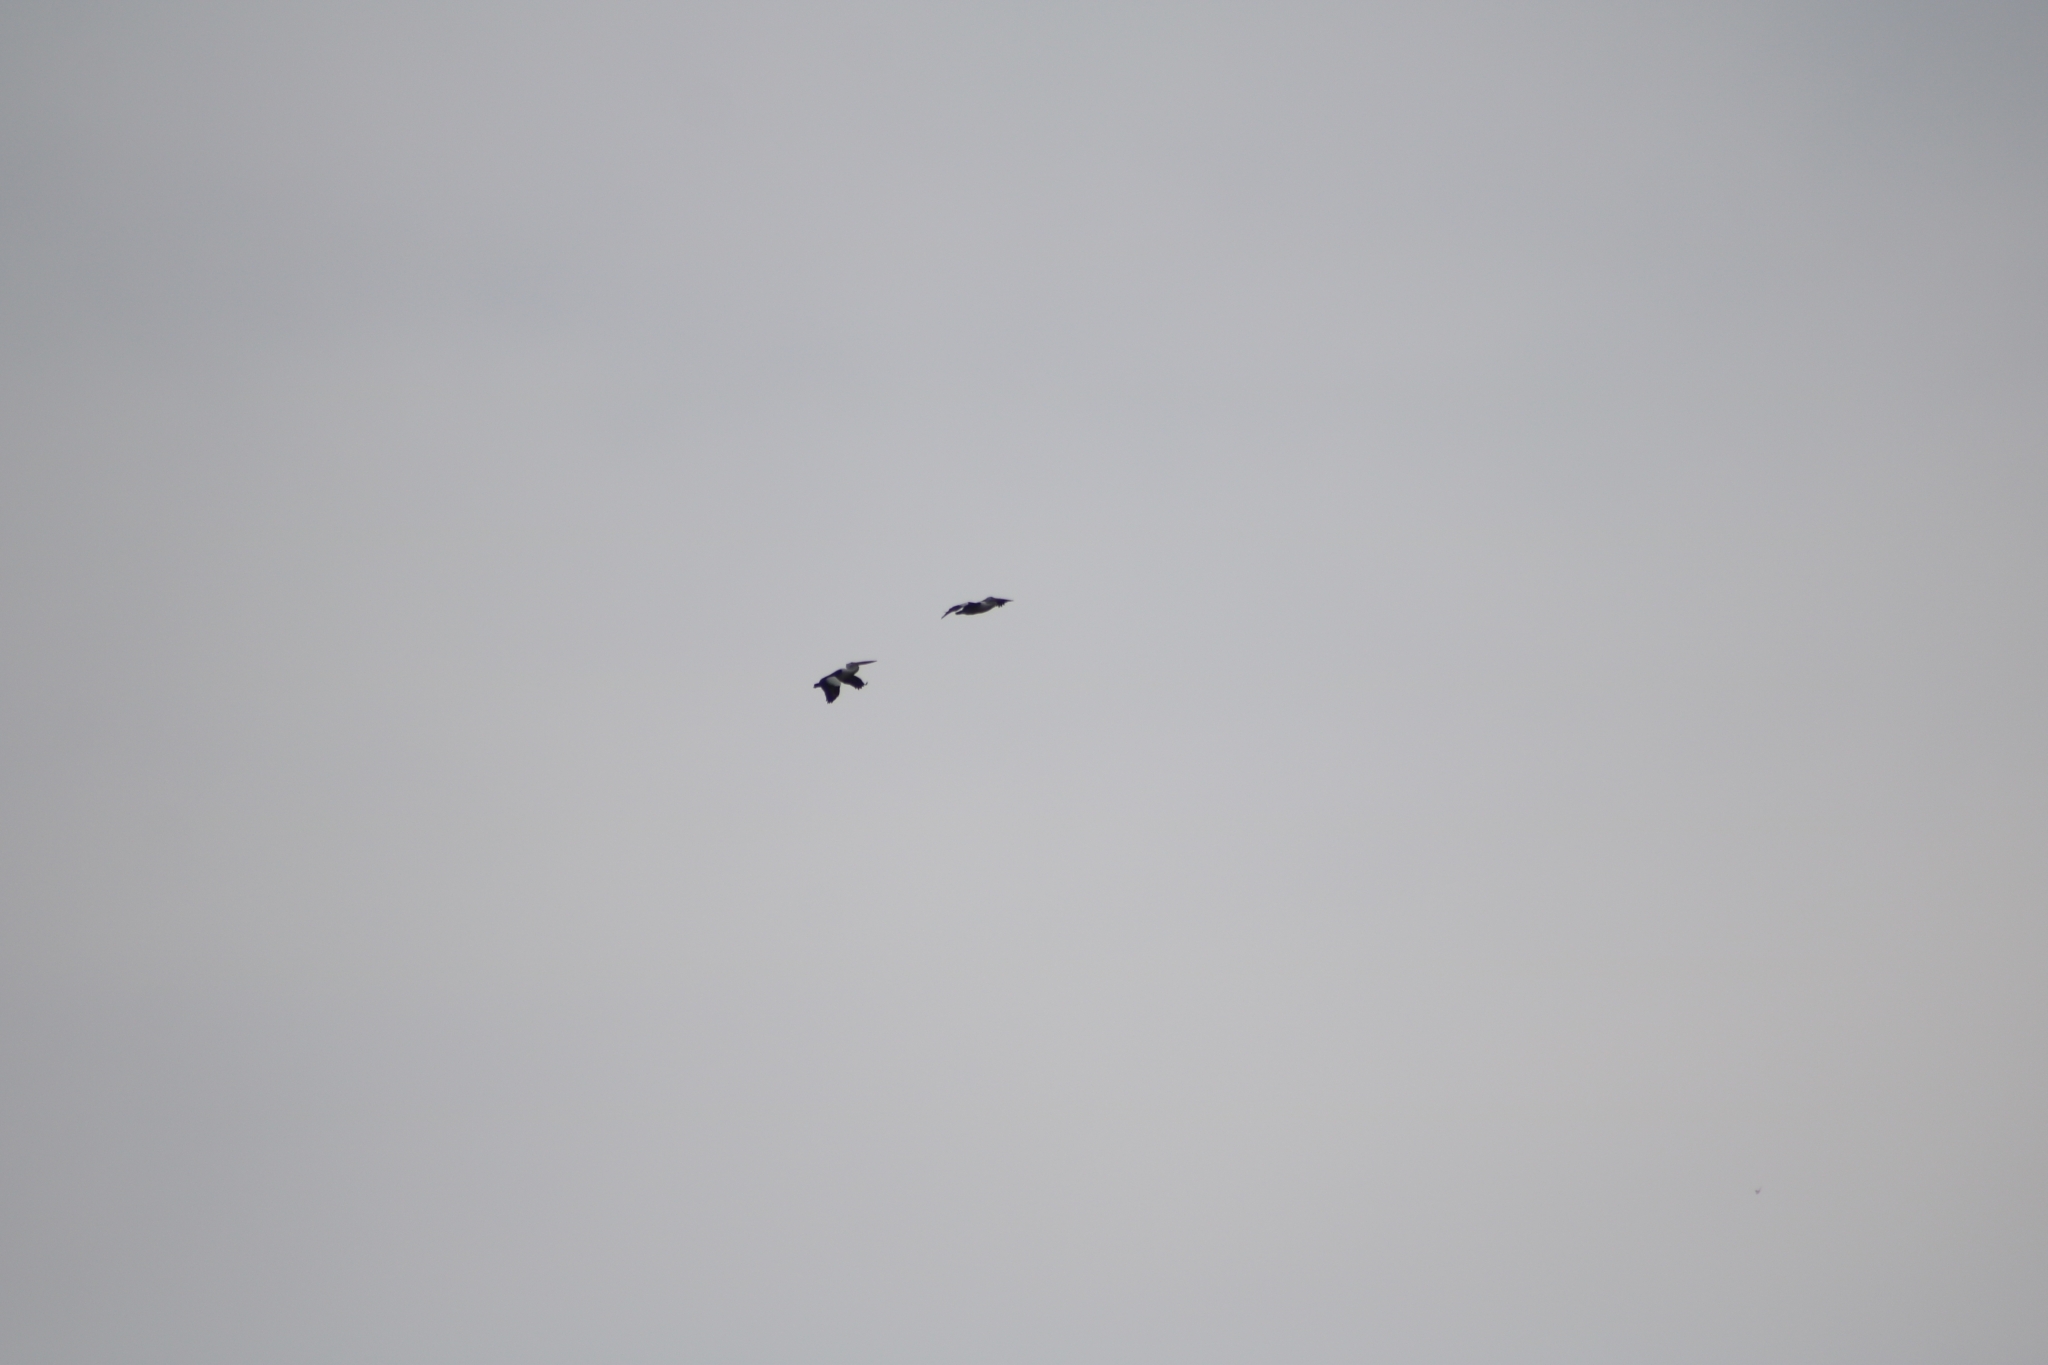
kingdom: Animalia
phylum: Chordata
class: Aves
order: Pelecaniformes
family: Pelecanidae
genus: Pelecanus
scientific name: Pelecanus conspicillatus
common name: Australian pelican
